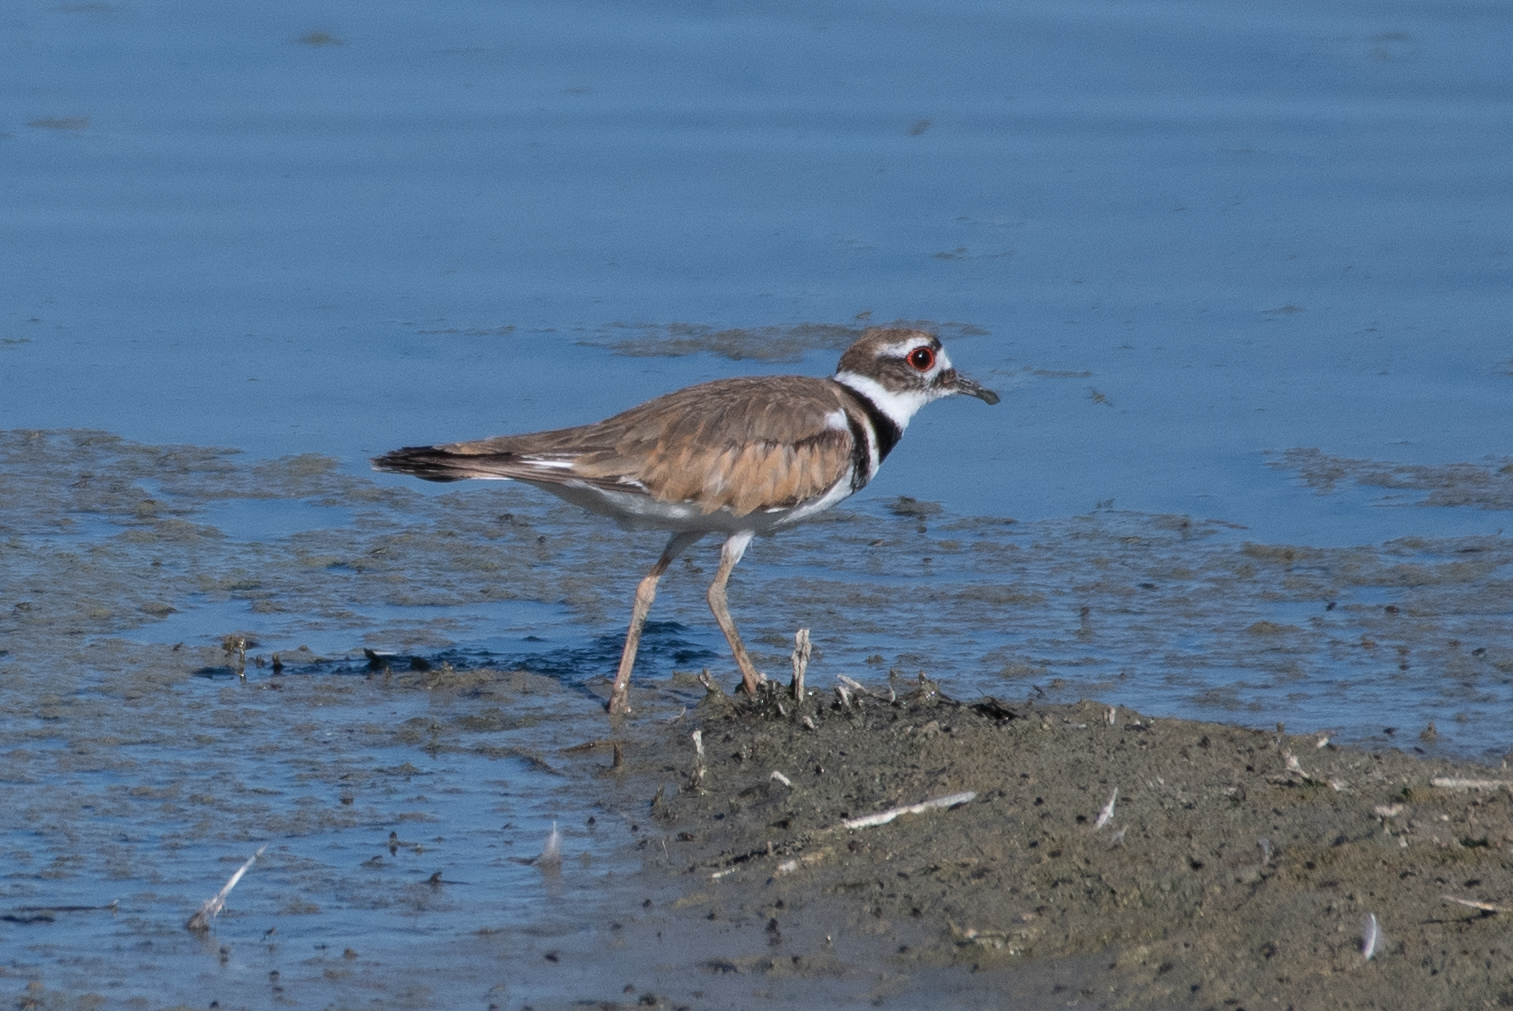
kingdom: Animalia
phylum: Chordata
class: Aves
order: Charadriiformes
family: Charadriidae
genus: Charadrius
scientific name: Charadrius vociferus
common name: Killdeer
